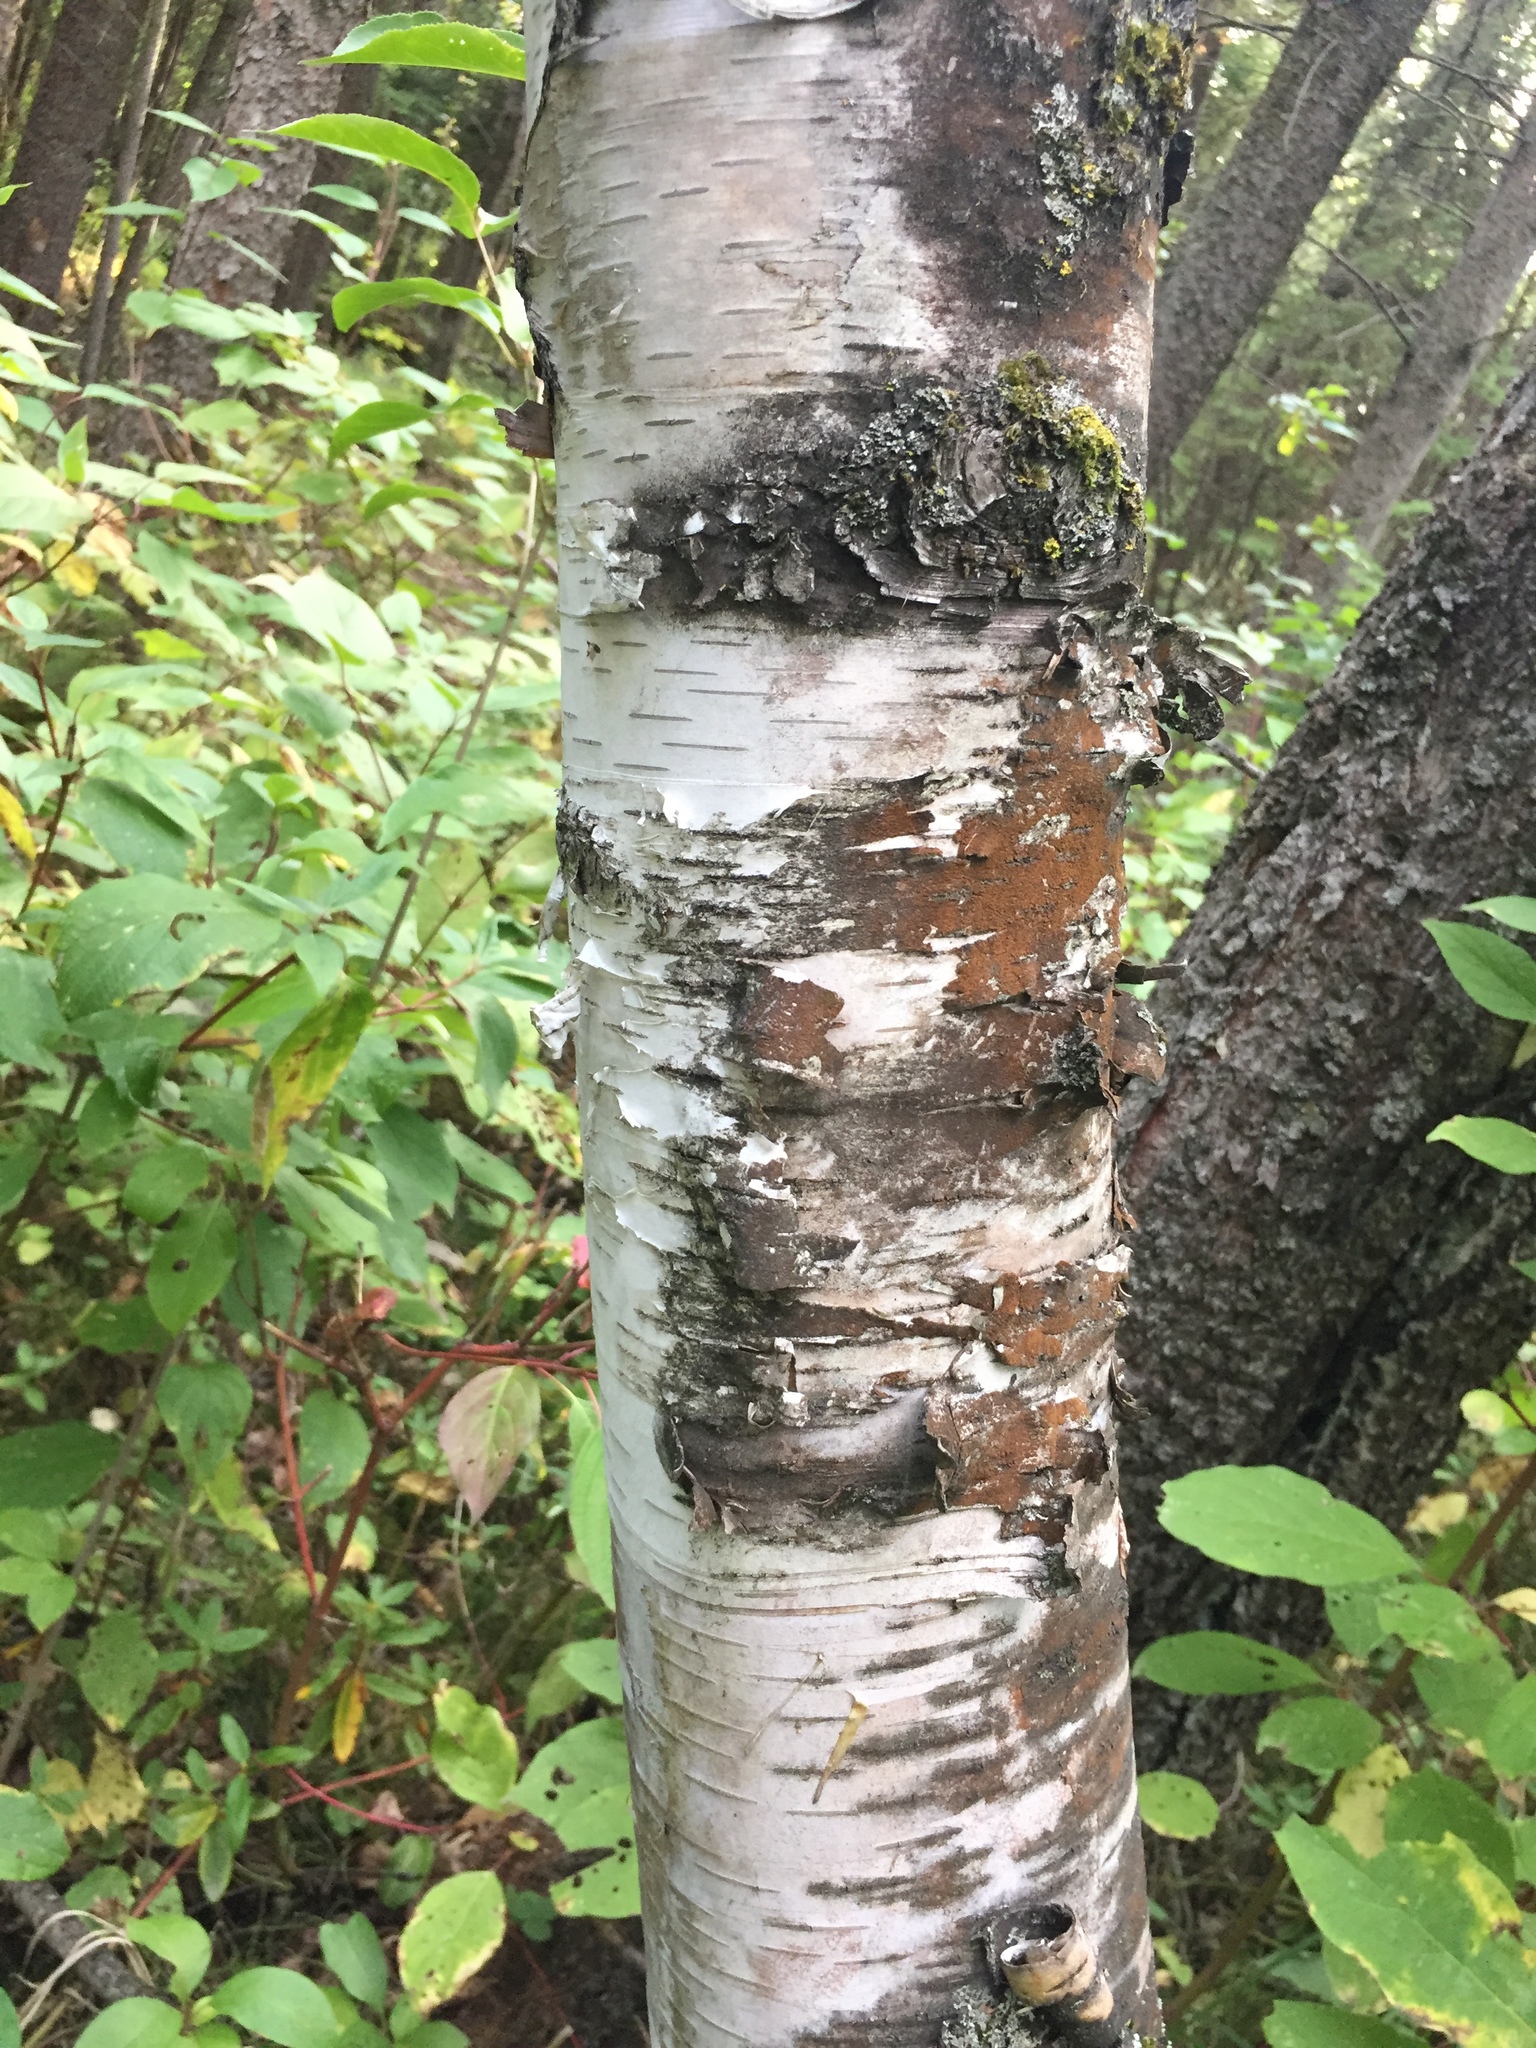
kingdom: Plantae
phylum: Tracheophyta
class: Magnoliopsida
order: Fagales
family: Betulaceae
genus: Betula
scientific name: Betula papyrifera
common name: Paper birch
